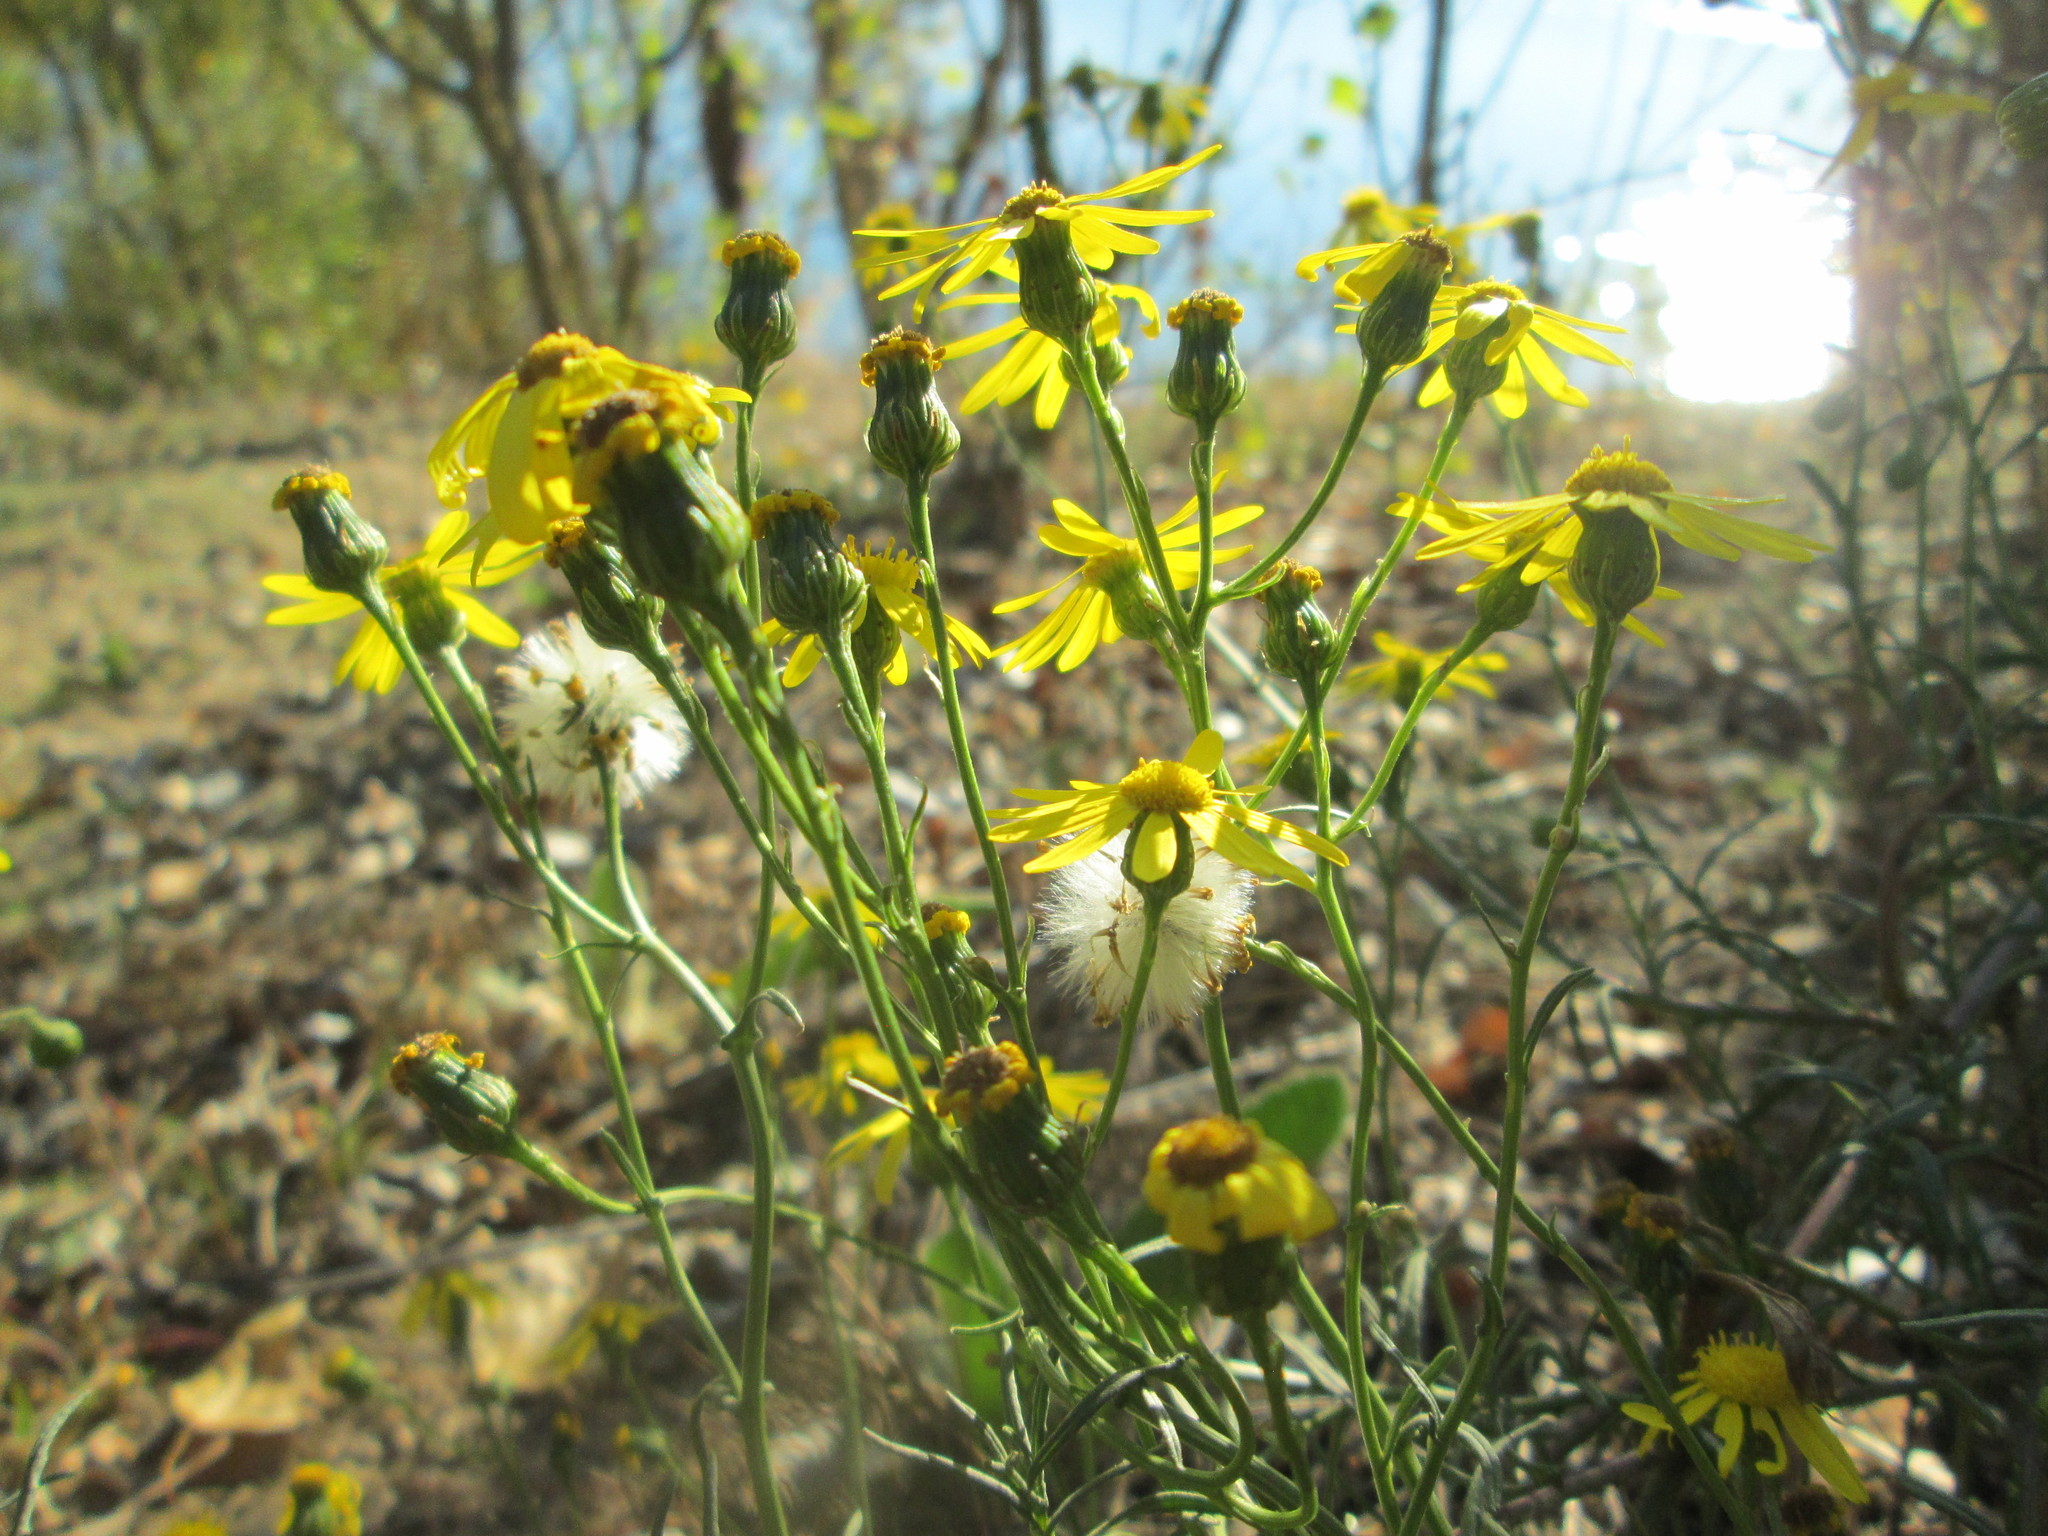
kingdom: Plantae
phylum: Tracheophyta
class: Magnoliopsida
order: Asterales
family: Asteraceae
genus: Senecio
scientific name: Senecio inaequidens
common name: Narrow-leaved ragwort
